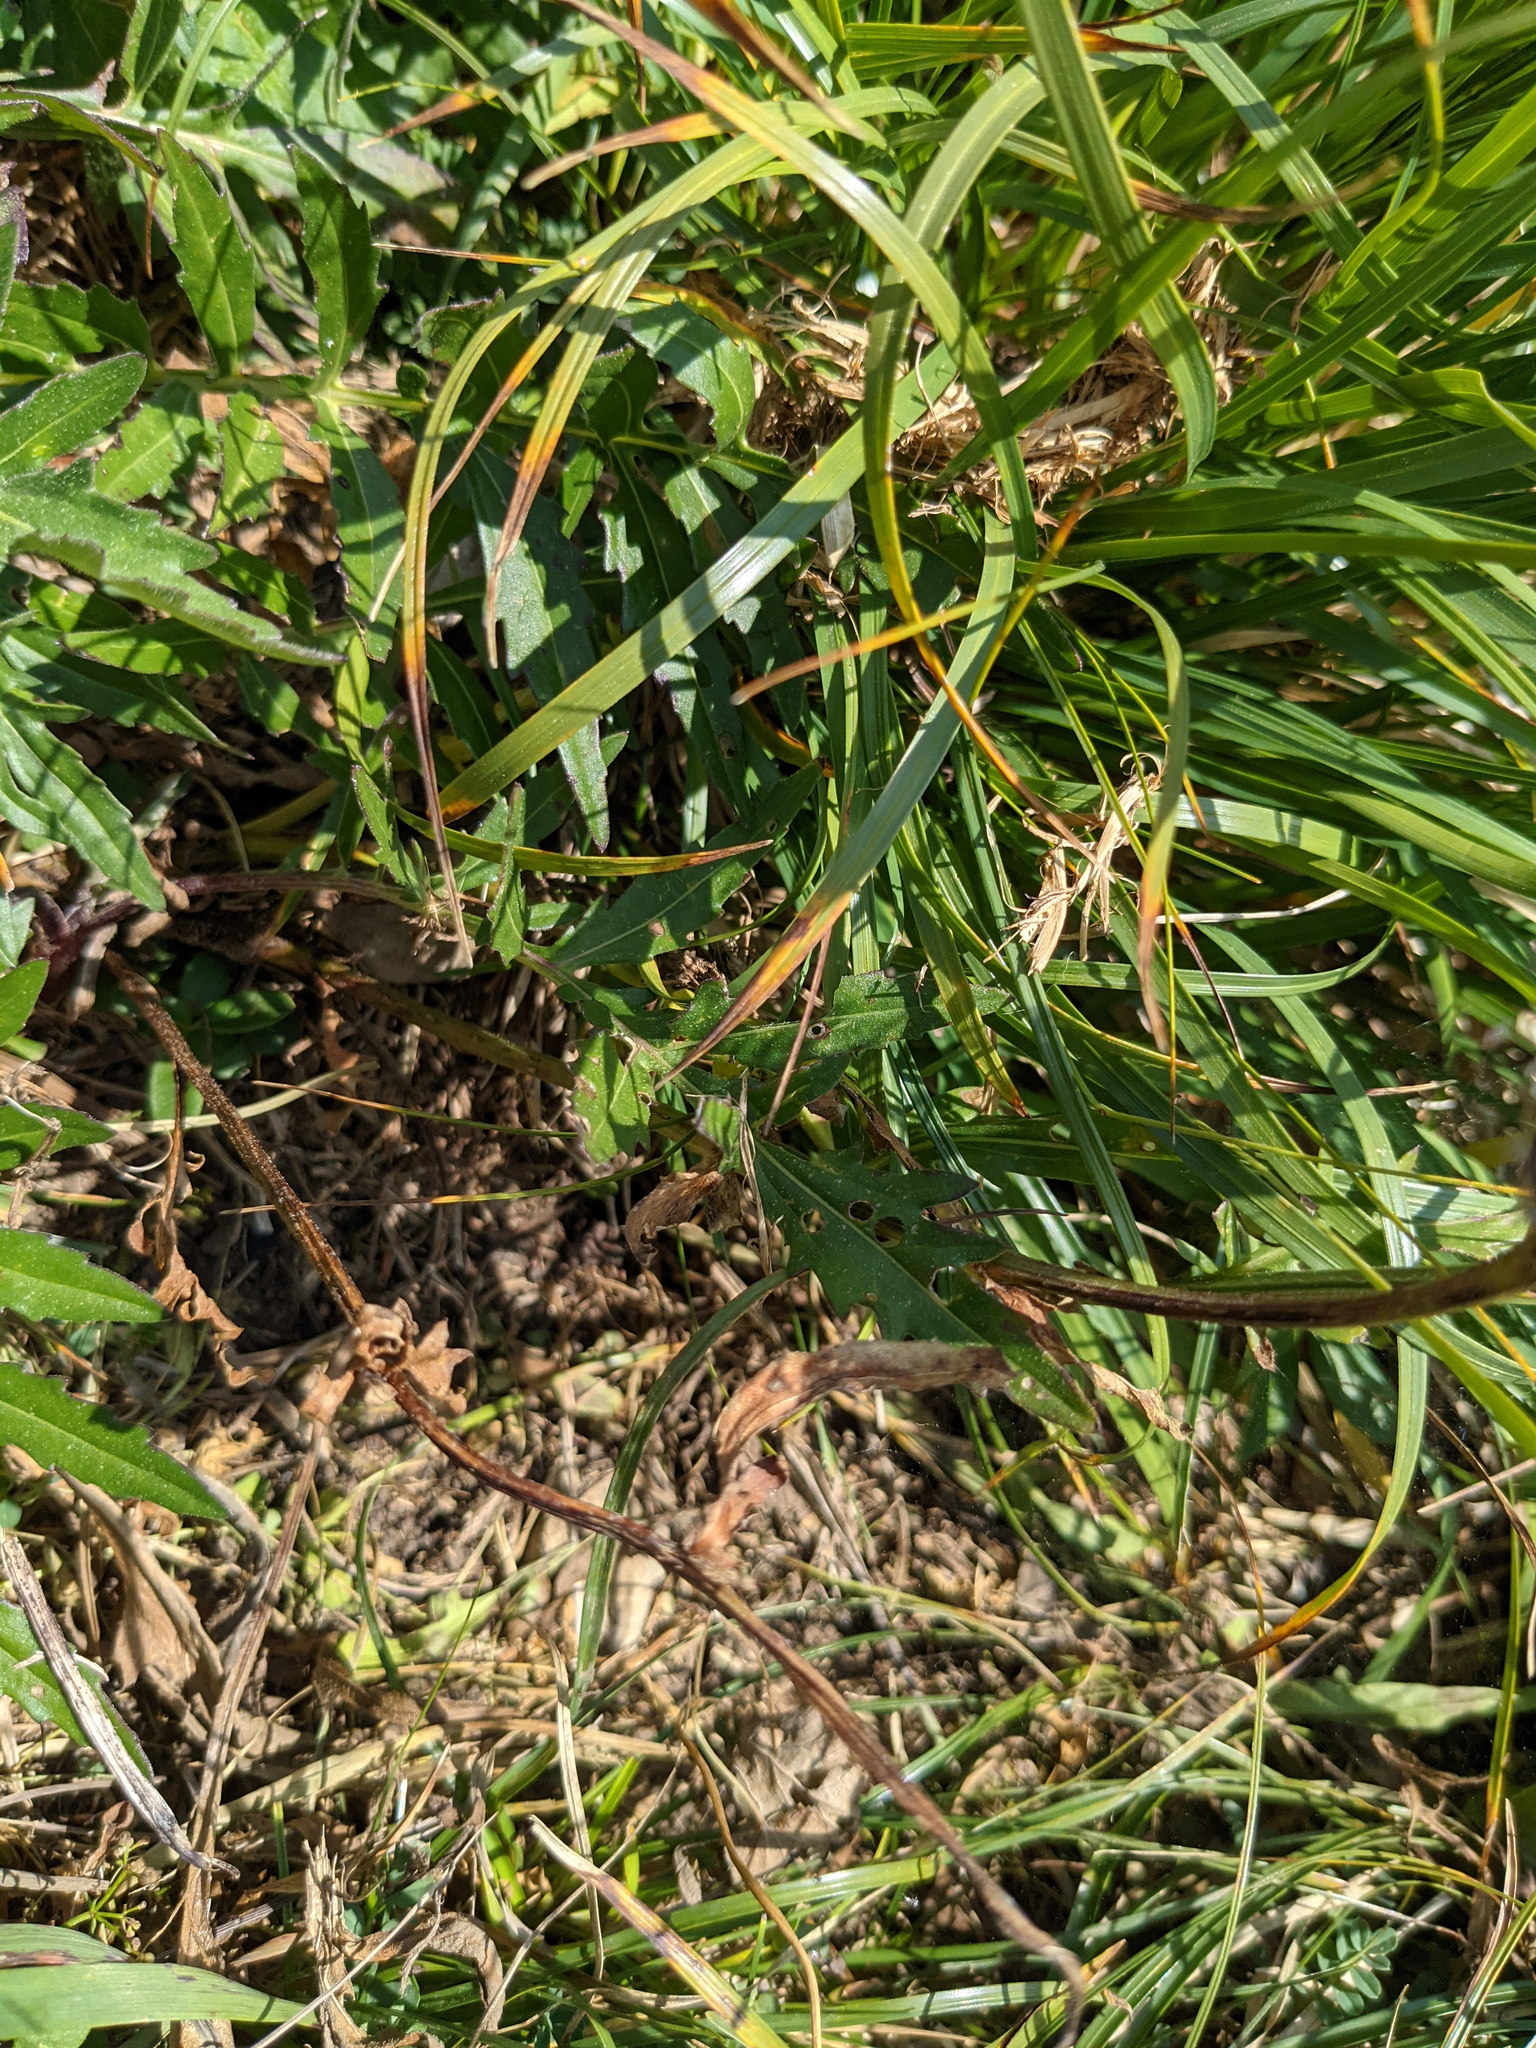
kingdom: Plantae
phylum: Tracheophyta
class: Magnoliopsida
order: Asterales
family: Asteraceae
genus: Centaurea
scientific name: Centaurea scabiosa
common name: Greater knapweed
